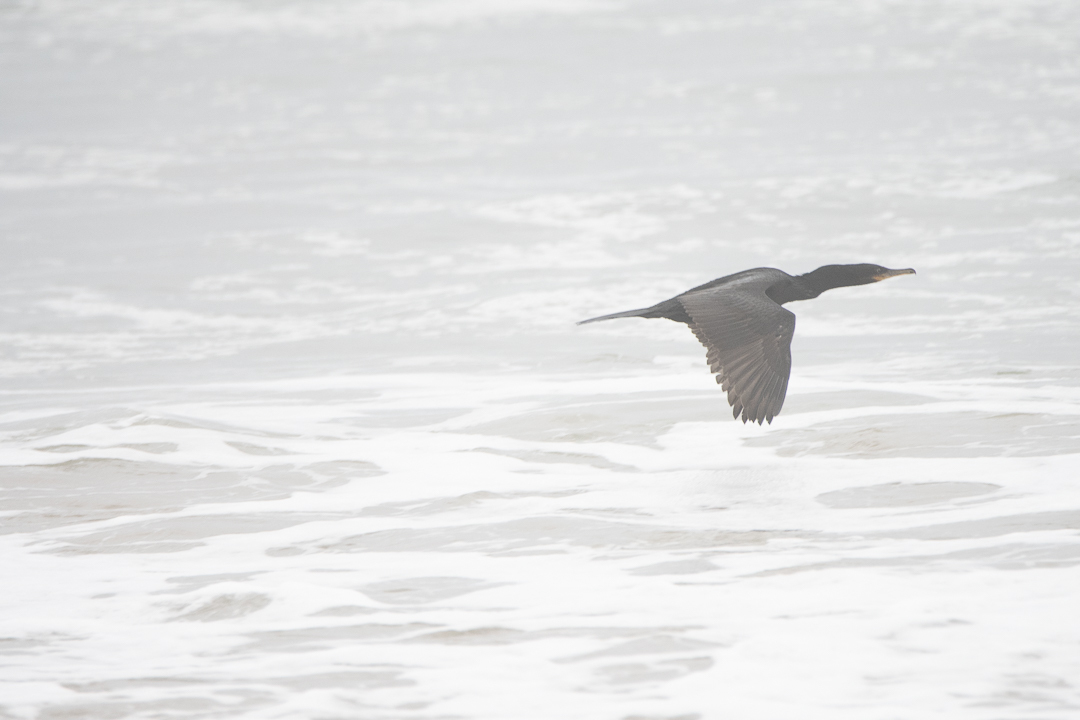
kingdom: Animalia
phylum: Chordata
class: Aves
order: Suliformes
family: Phalacrocoracidae
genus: Phalacrocorax
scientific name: Phalacrocorax brasilianus
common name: Neotropic cormorant
